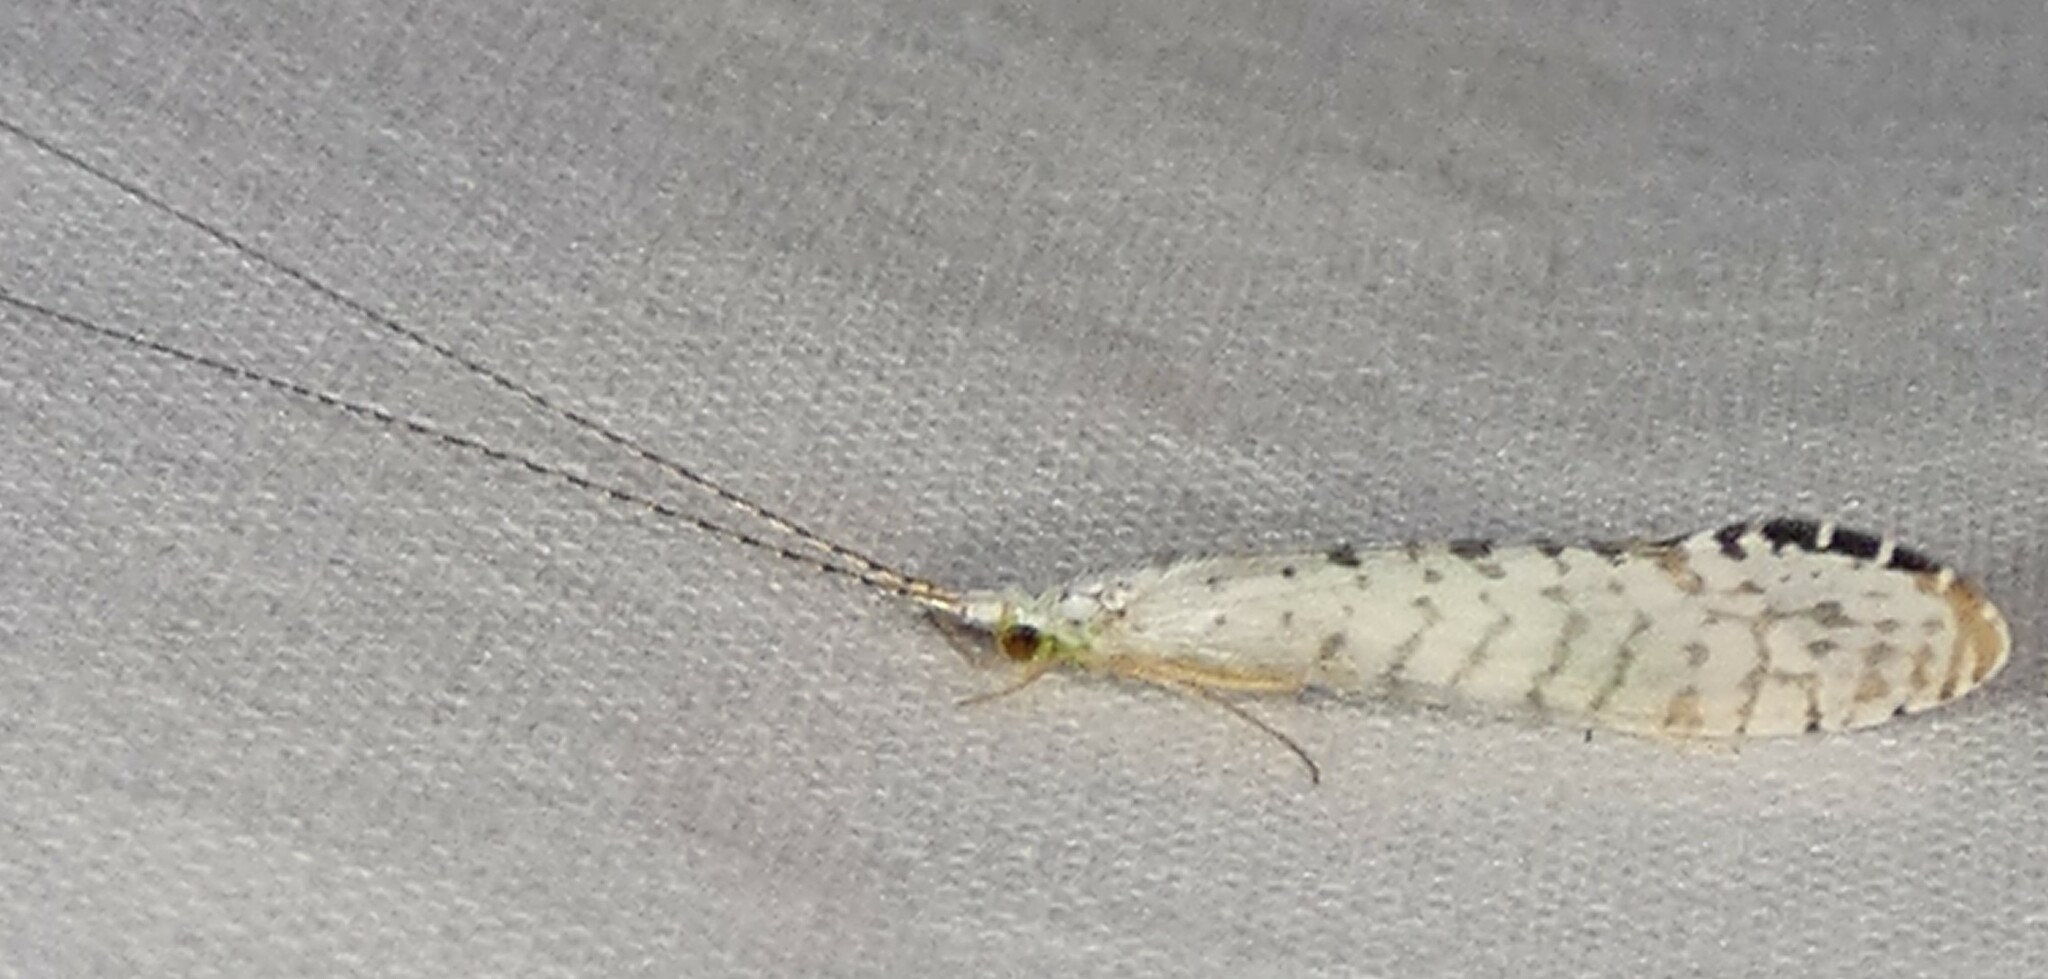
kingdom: Animalia
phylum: Arthropoda
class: Insecta
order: Trichoptera
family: Leptoceridae
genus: Nectopsyche
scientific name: Nectopsyche candida
